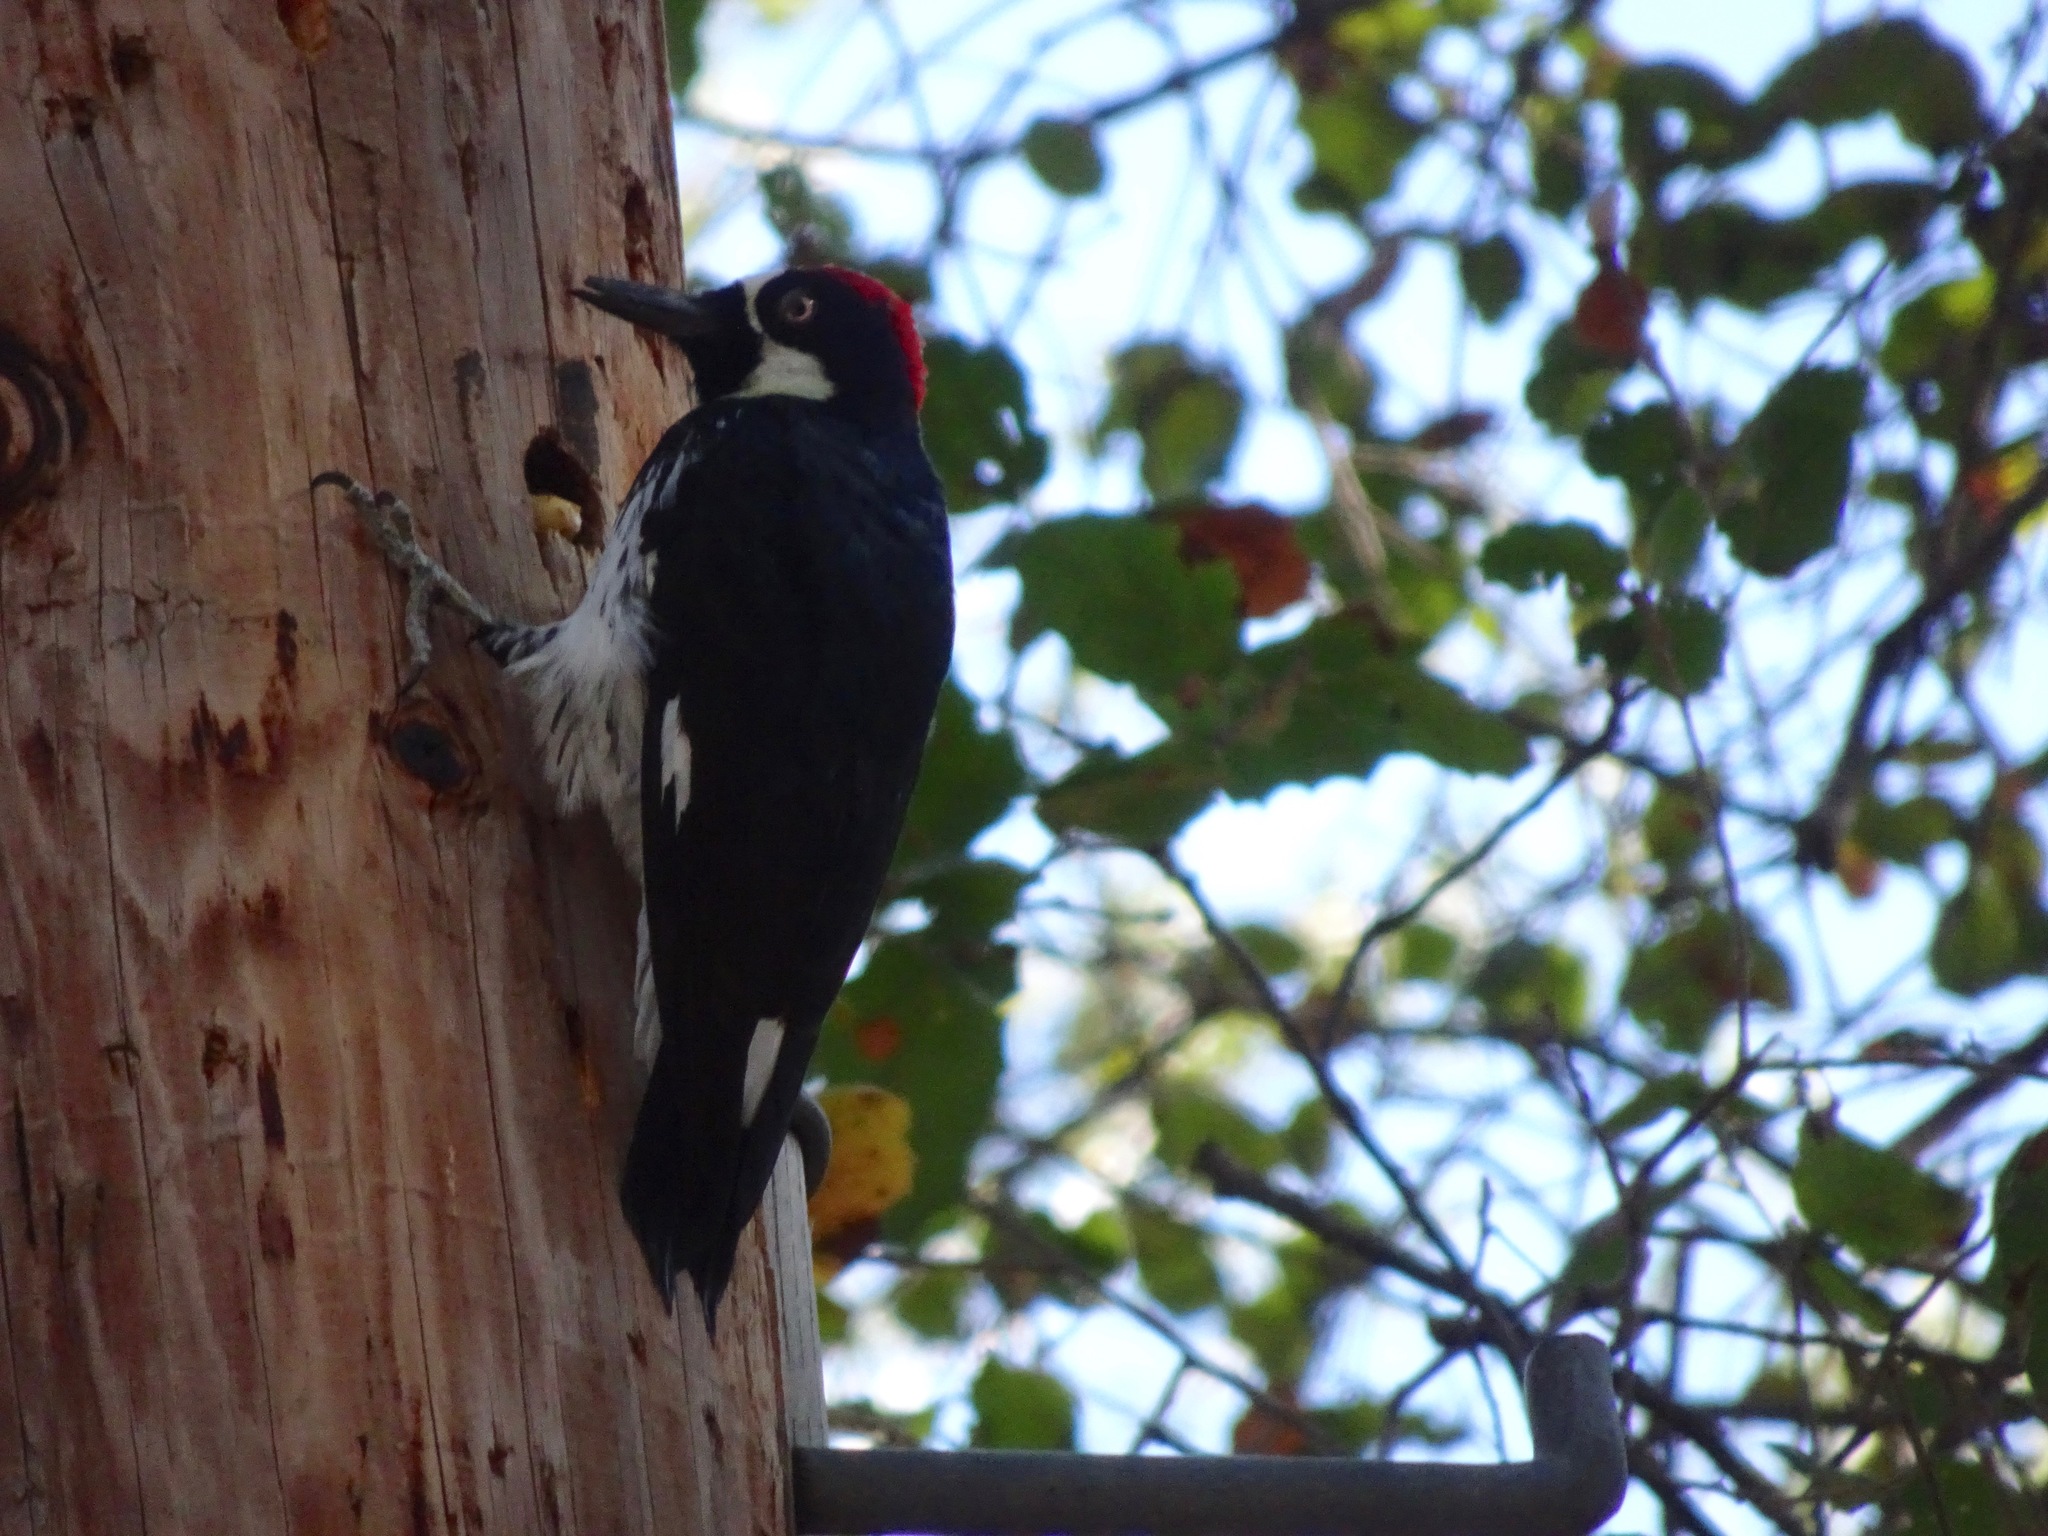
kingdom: Animalia
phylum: Chordata
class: Aves
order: Piciformes
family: Picidae
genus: Melanerpes
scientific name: Melanerpes formicivorus
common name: Acorn woodpecker
